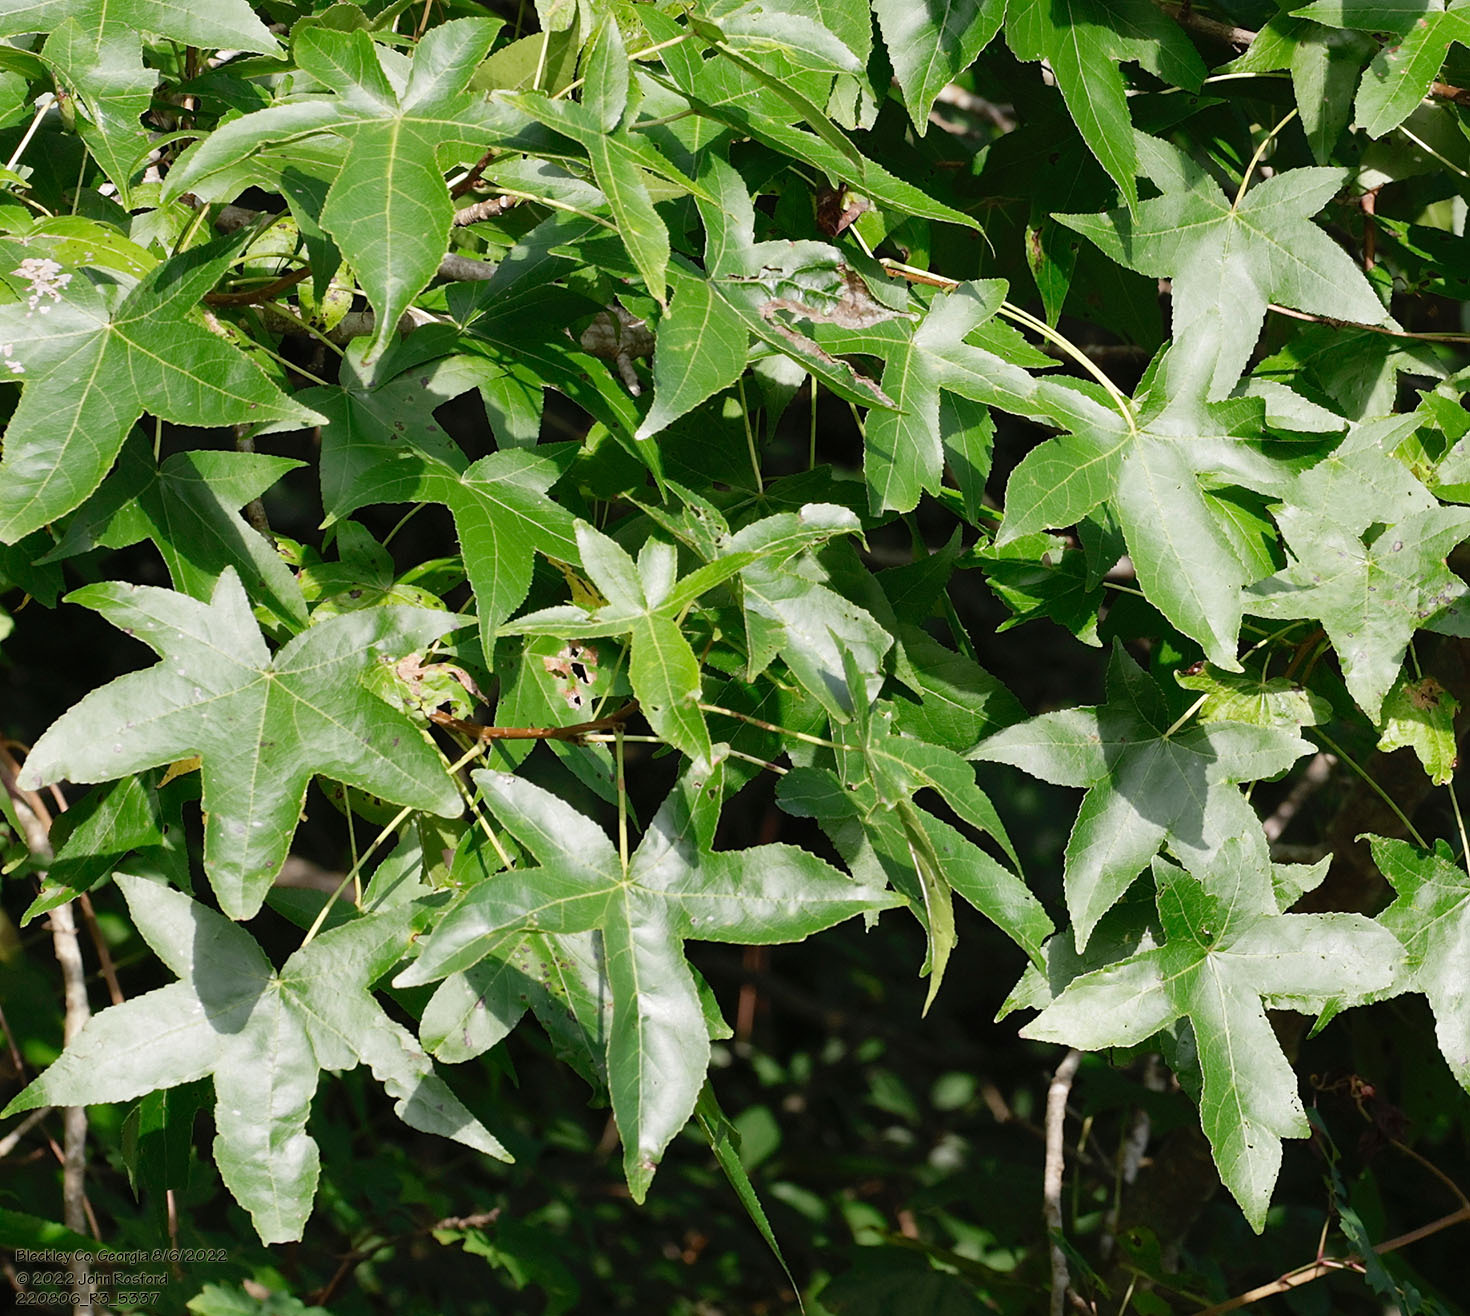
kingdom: Plantae
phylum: Tracheophyta
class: Magnoliopsida
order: Saxifragales
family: Altingiaceae
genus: Liquidambar
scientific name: Liquidambar styraciflua
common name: Sweet gum
